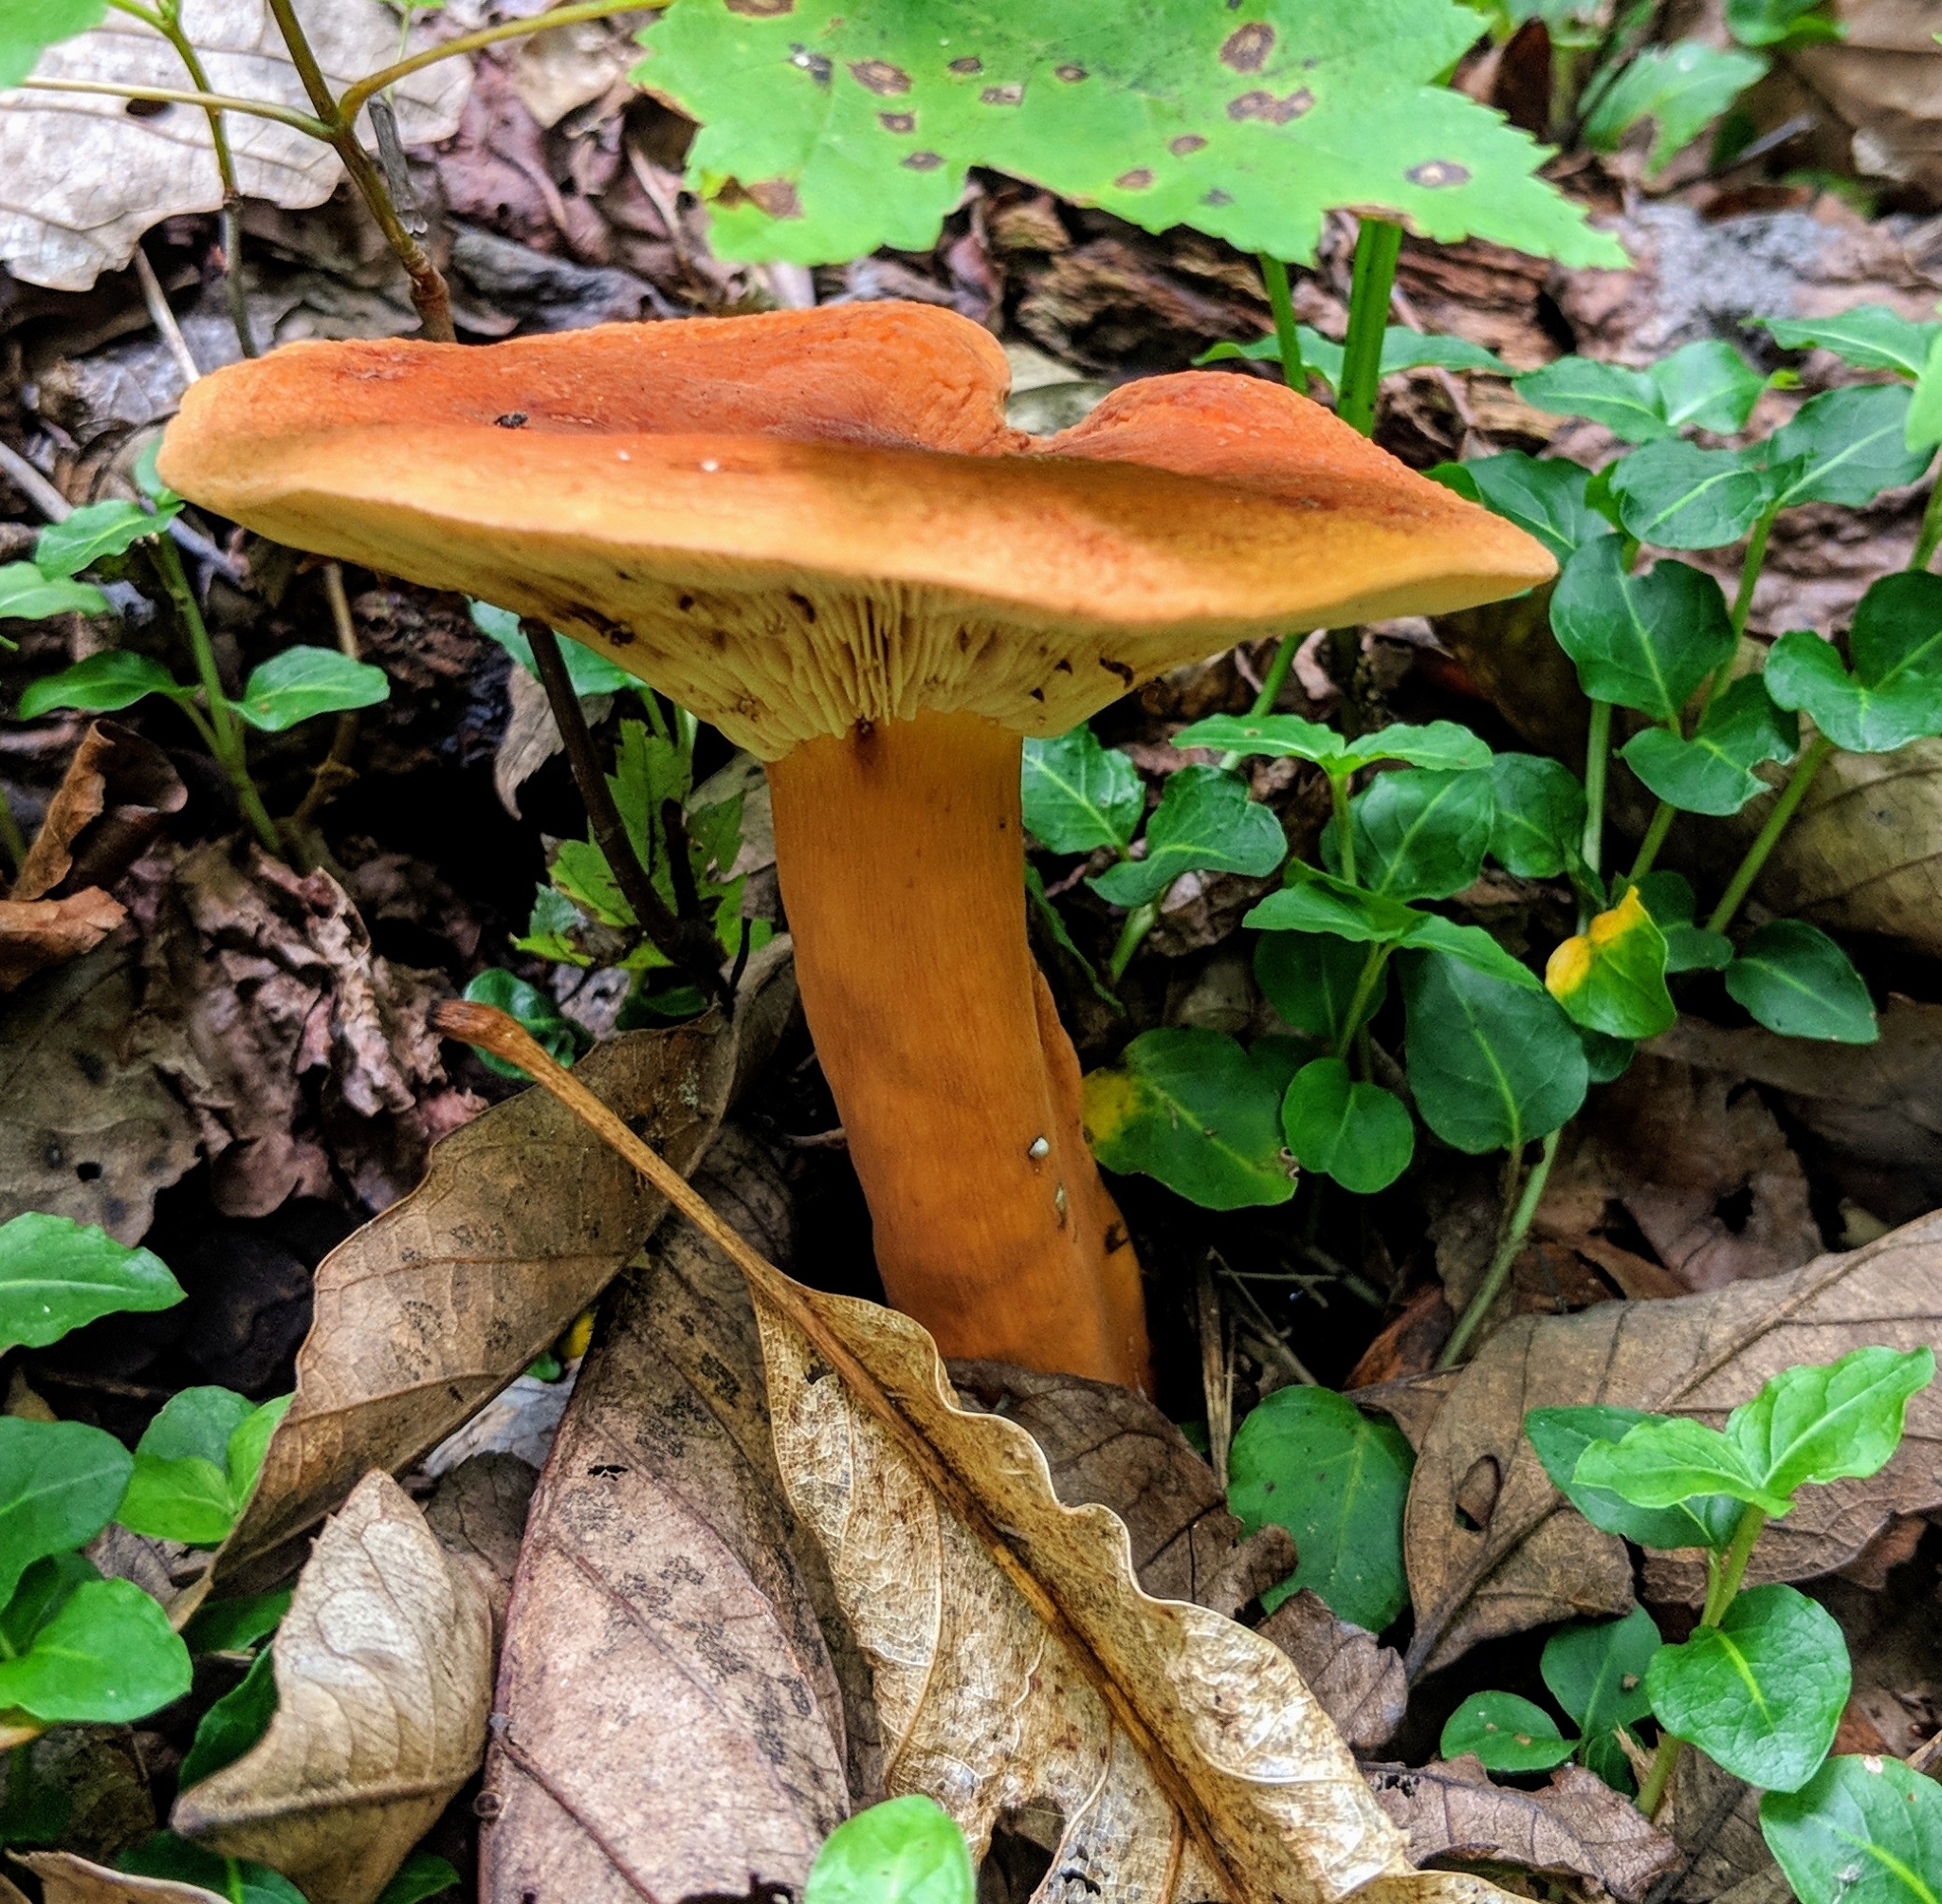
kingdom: Fungi
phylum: Basidiomycota
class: Agaricomycetes
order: Russulales
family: Russulaceae
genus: Lactifluus
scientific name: Lactifluus volemus
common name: Fishy milkcap
